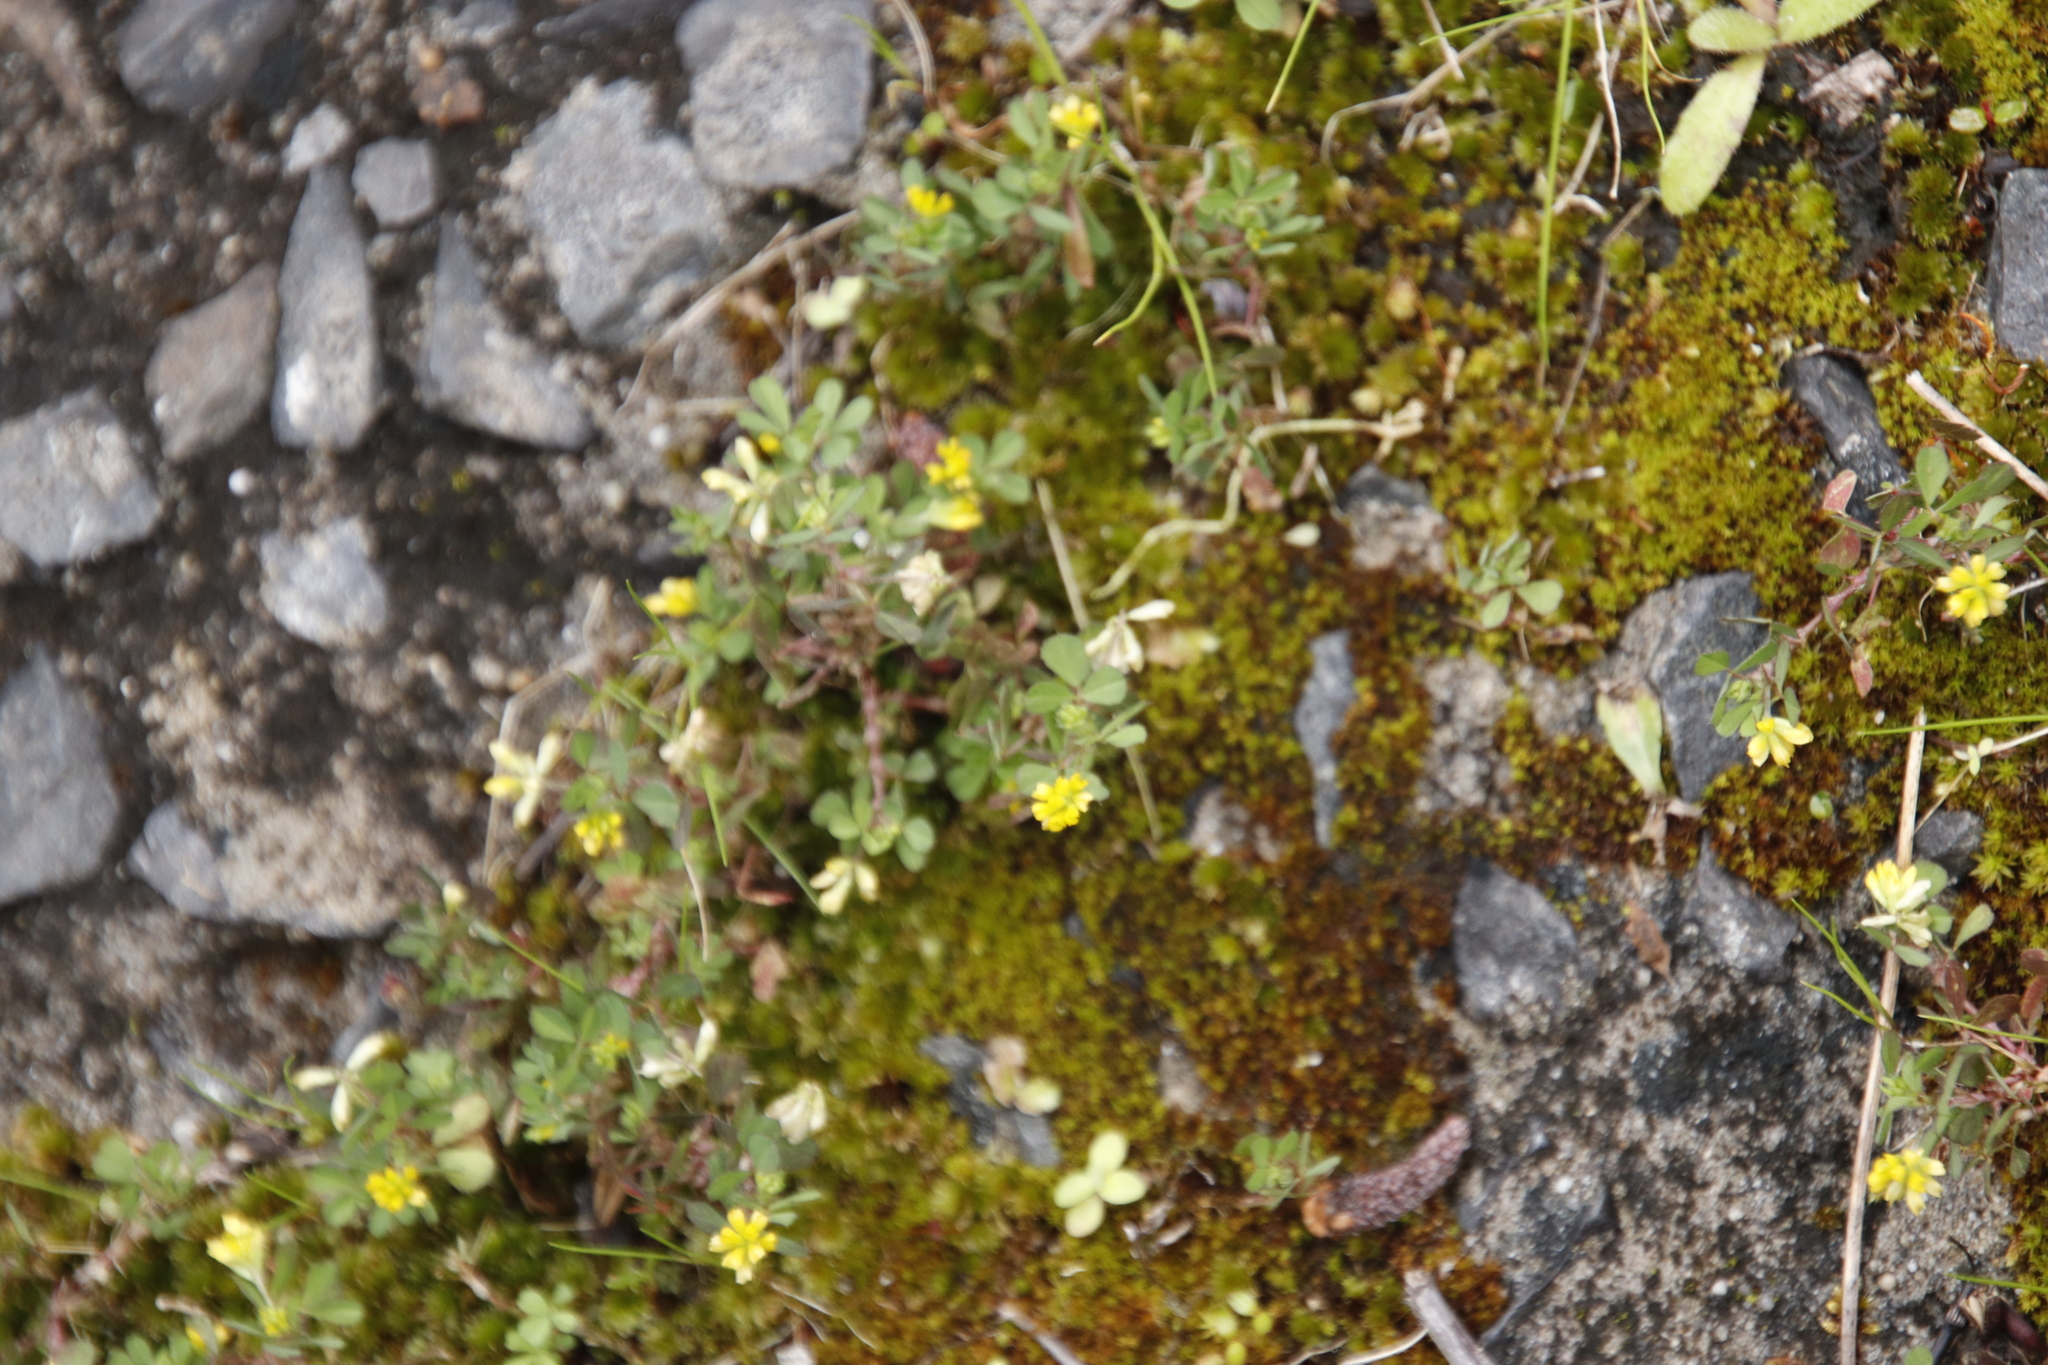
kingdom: Plantae
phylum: Tracheophyta
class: Magnoliopsida
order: Fabales
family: Fabaceae
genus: Trifolium
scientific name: Trifolium dubium
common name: Suckling clover
